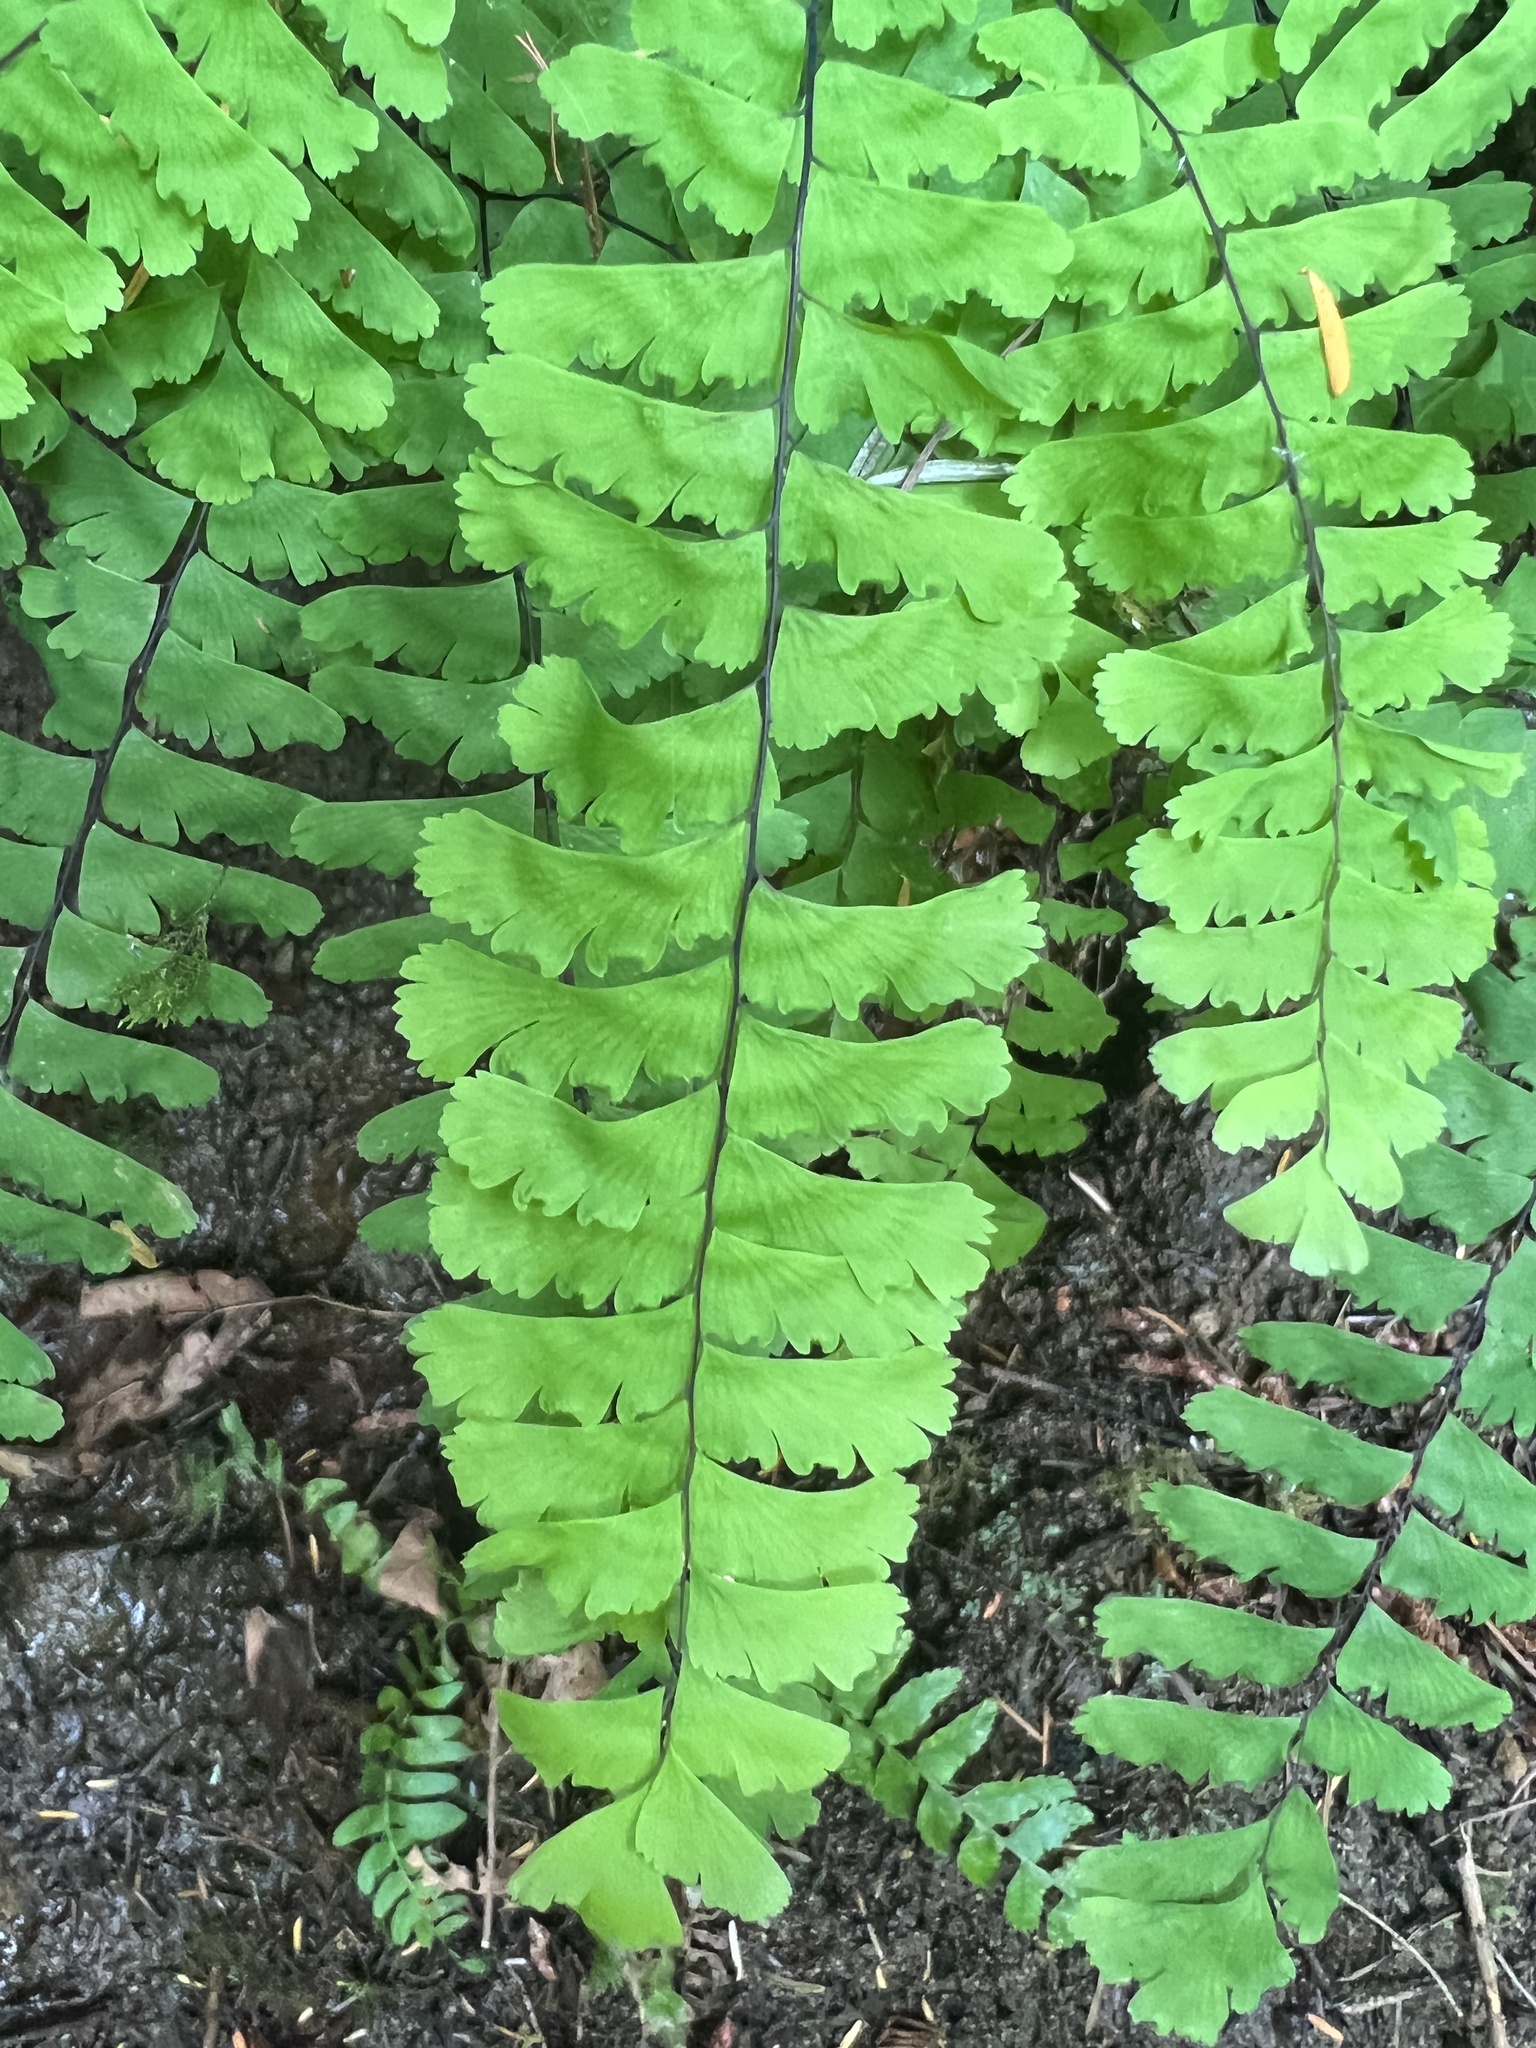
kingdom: Plantae
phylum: Tracheophyta
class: Polypodiopsida
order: Polypodiales
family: Pteridaceae
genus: Adiantum
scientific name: Adiantum aleuticum
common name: Aleutian maidenhair fern
